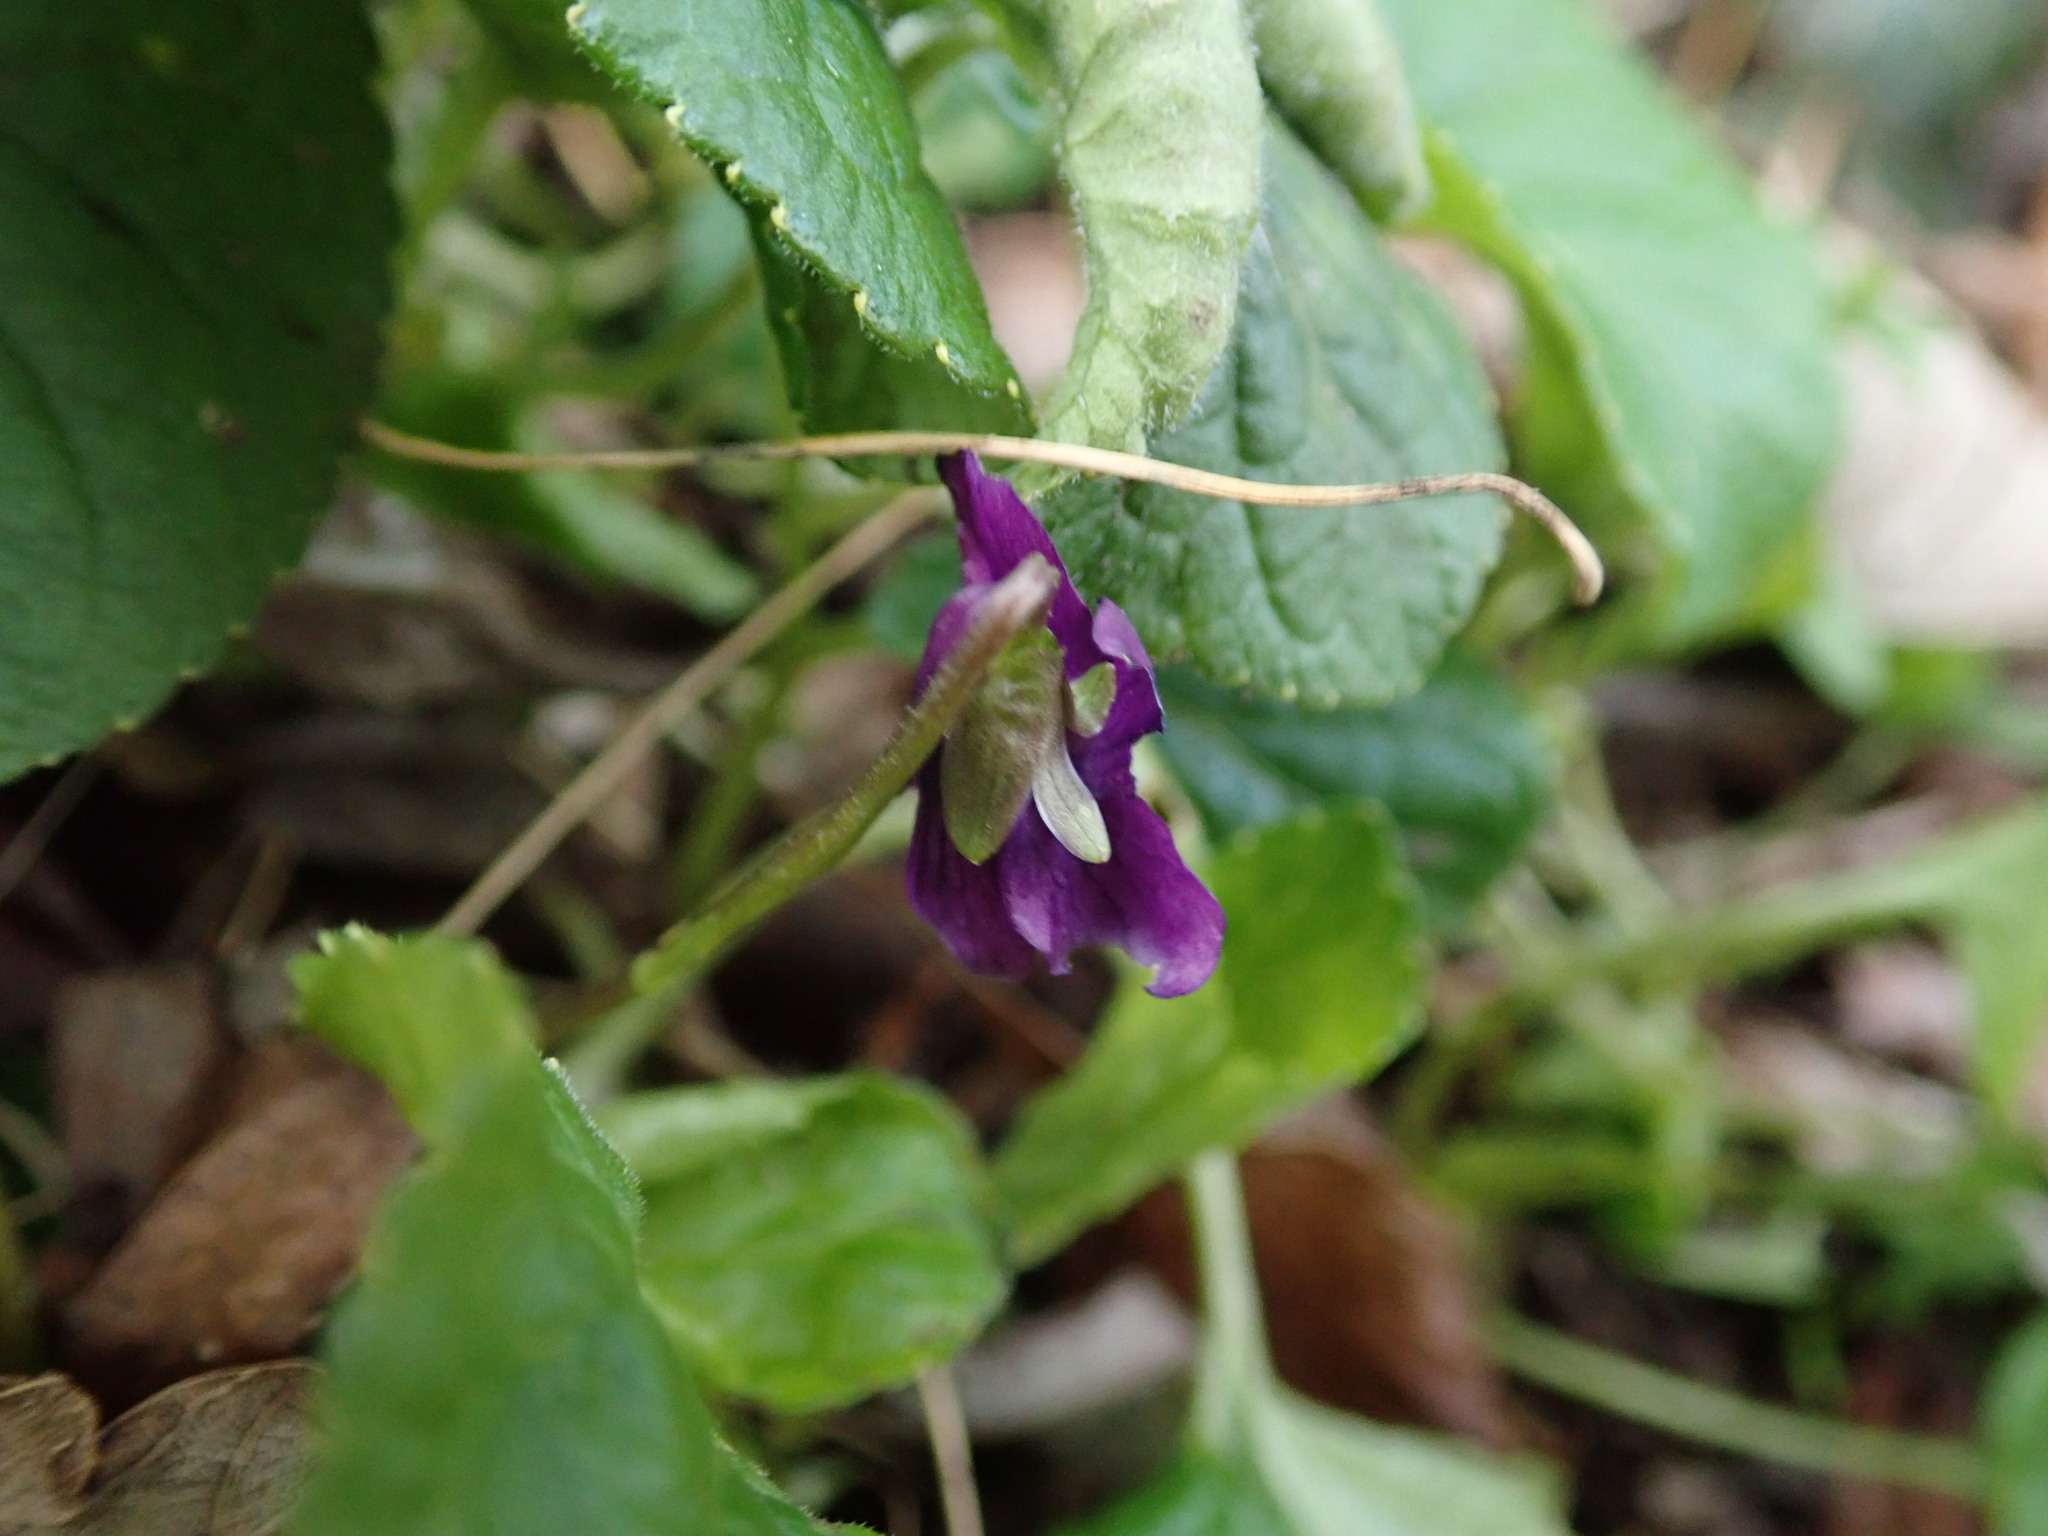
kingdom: Plantae
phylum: Tracheophyta
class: Magnoliopsida
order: Malpighiales
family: Violaceae
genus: Viola
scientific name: Viola odorata
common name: Sweet violet
